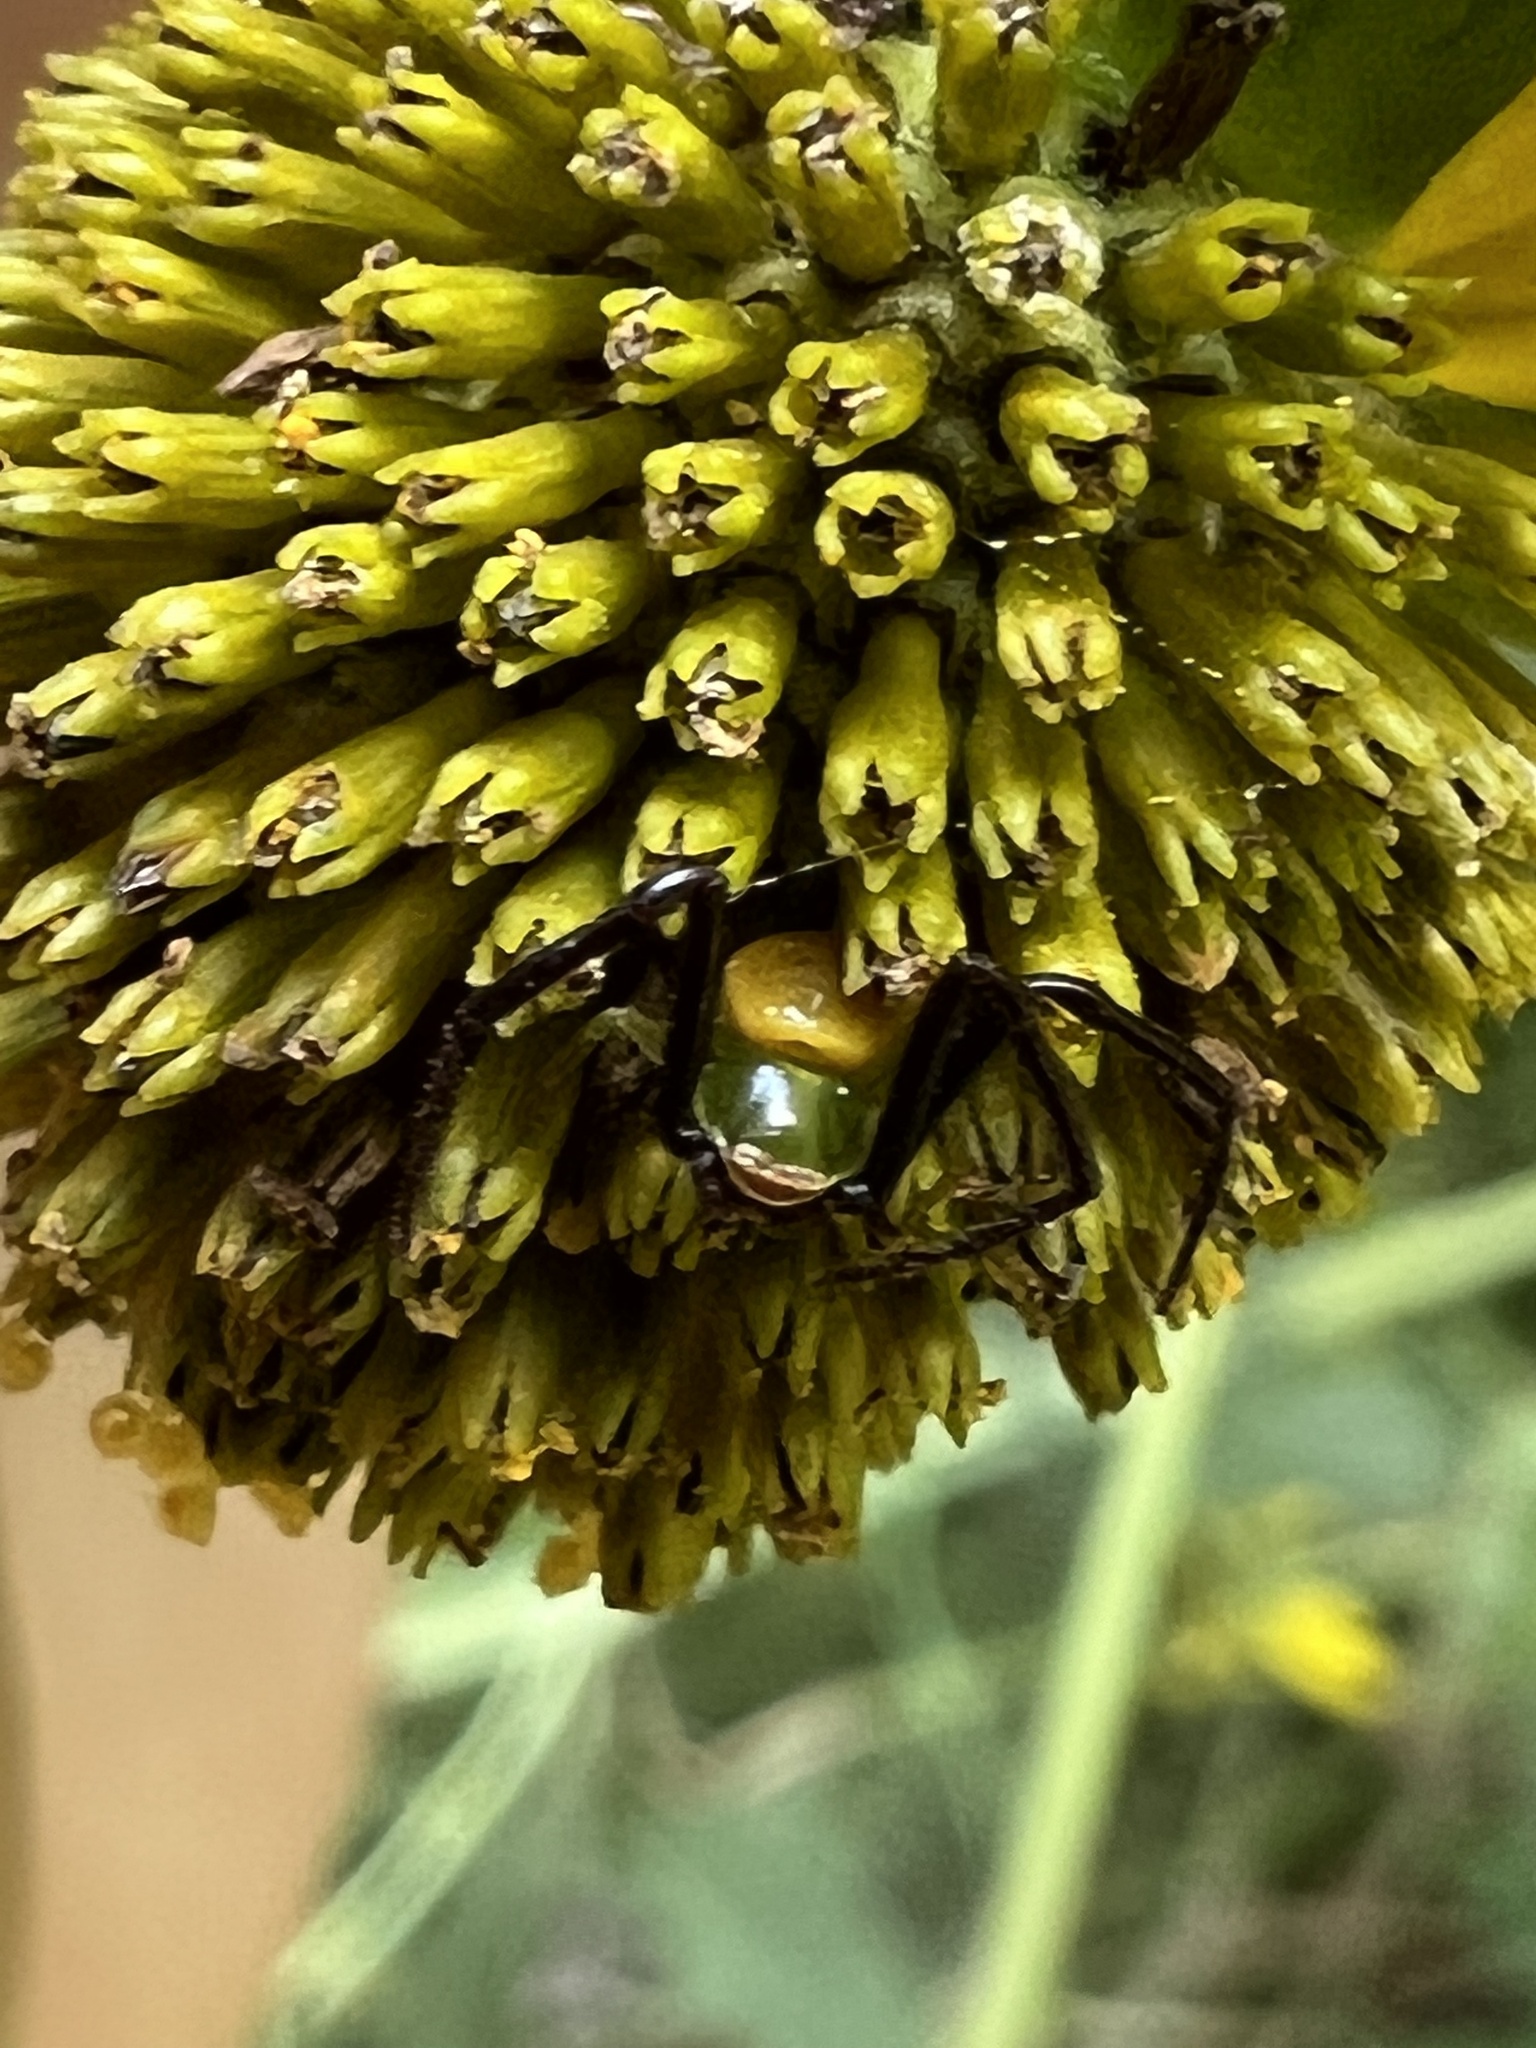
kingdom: Animalia
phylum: Arthropoda
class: Arachnida
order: Araneae
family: Thomisidae
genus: Misumenoides
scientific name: Misumenoides formosipes
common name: White-banded crab spider
